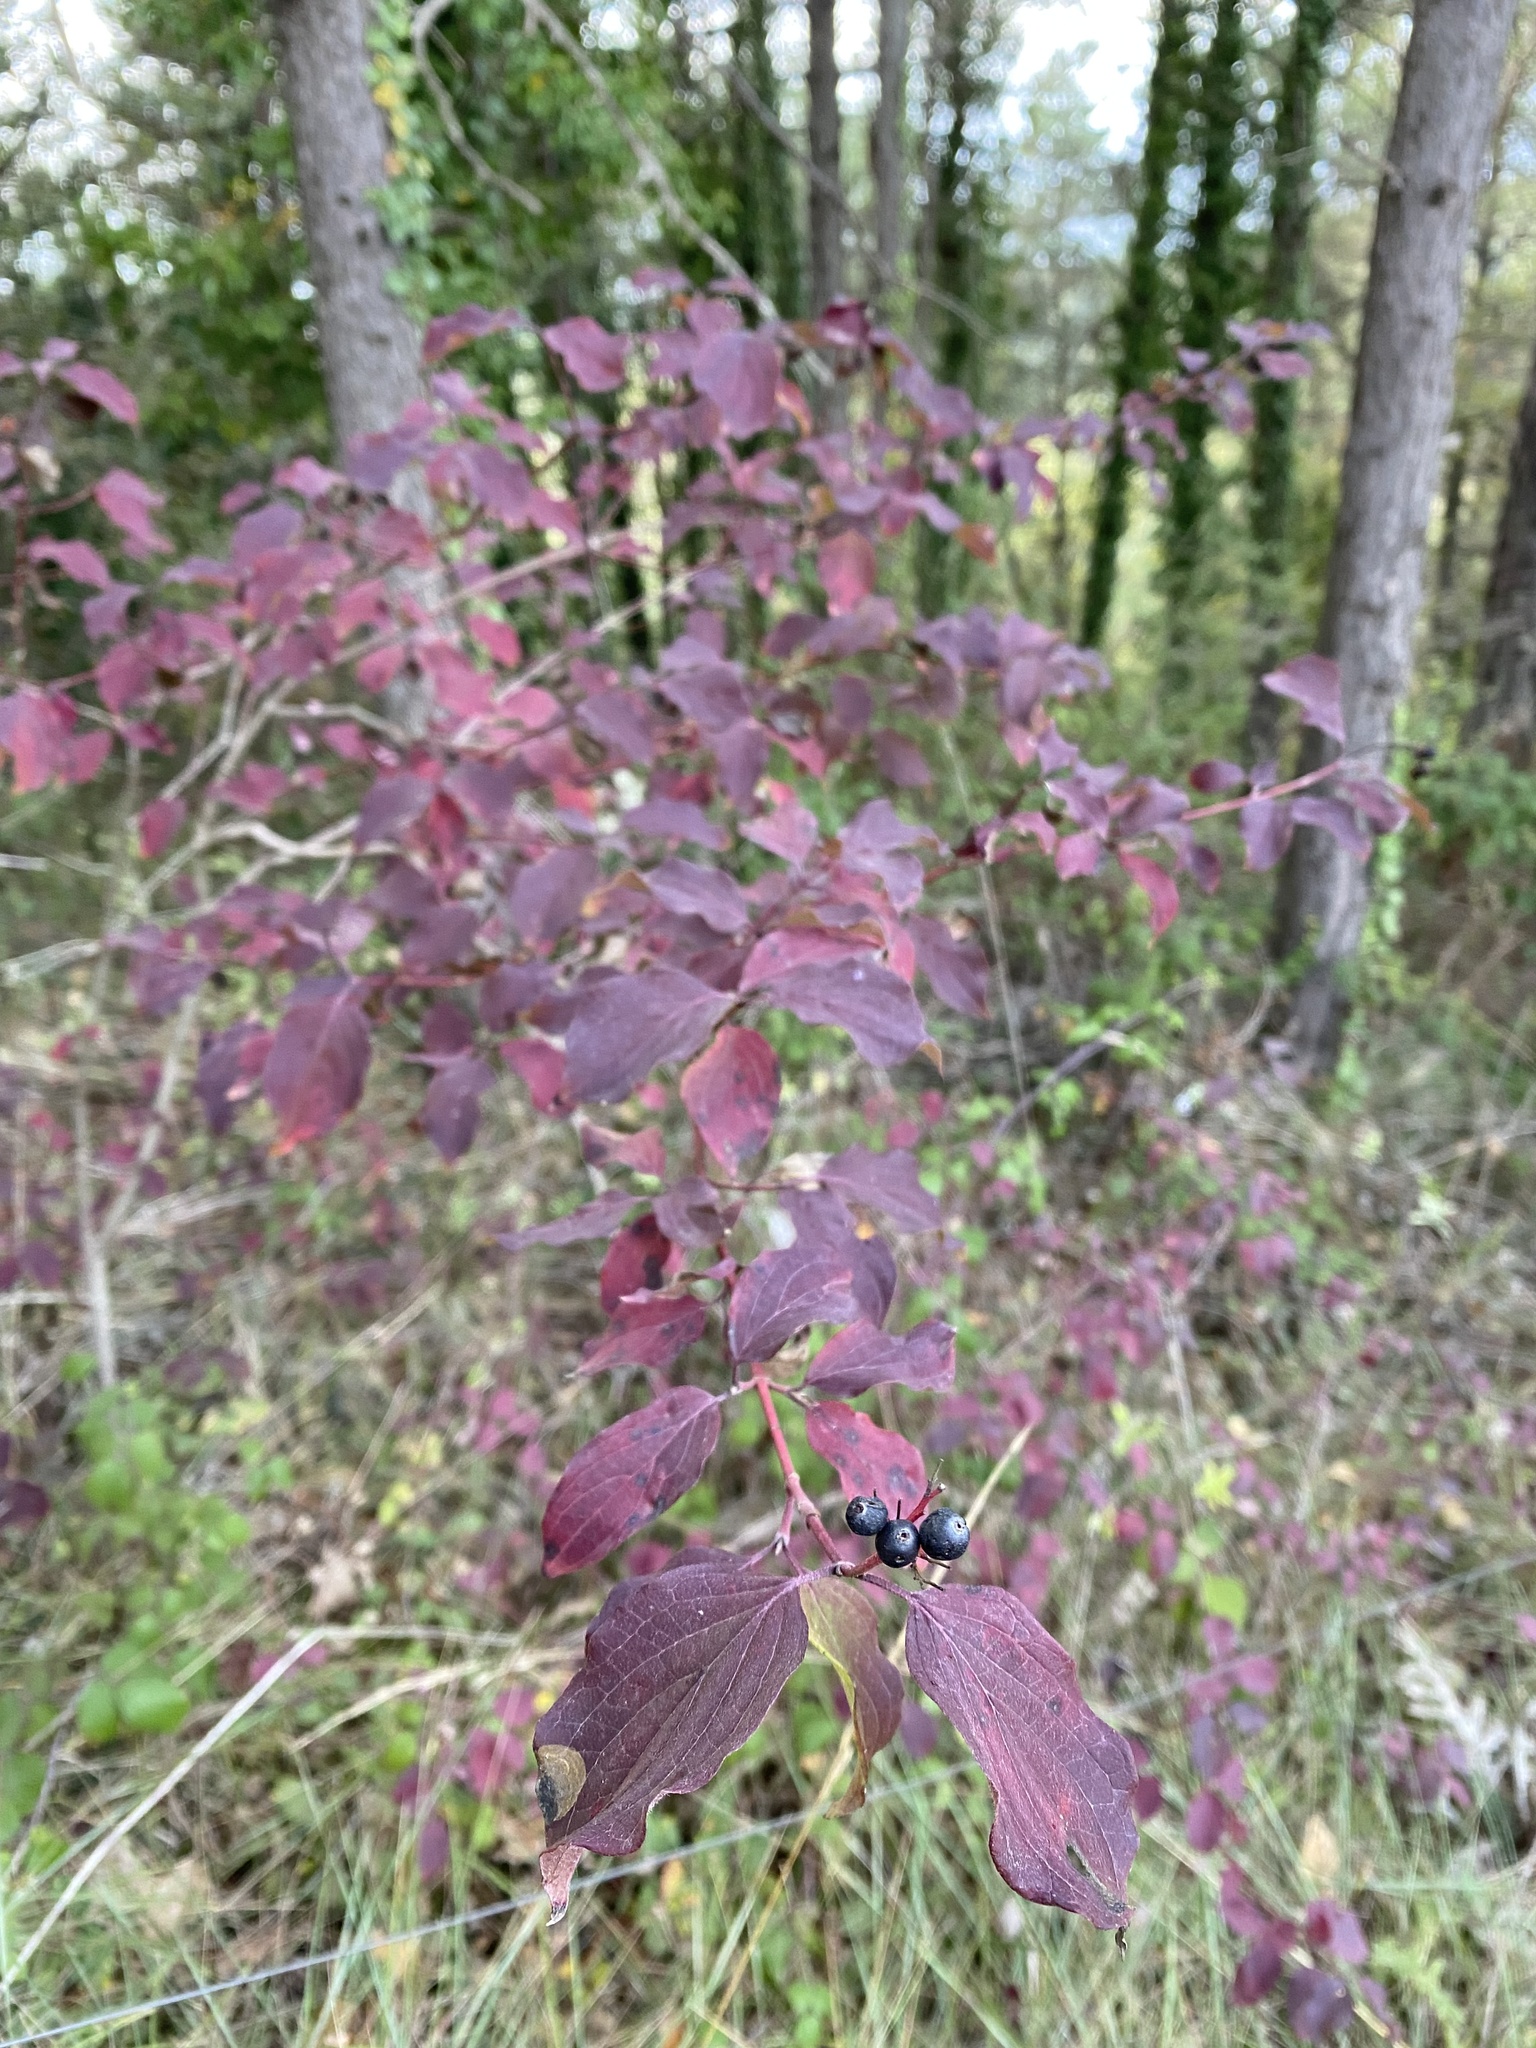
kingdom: Plantae
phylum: Tracheophyta
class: Magnoliopsida
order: Cornales
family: Cornaceae
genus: Cornus
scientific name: Cornus sanguinea
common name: Dogwood
